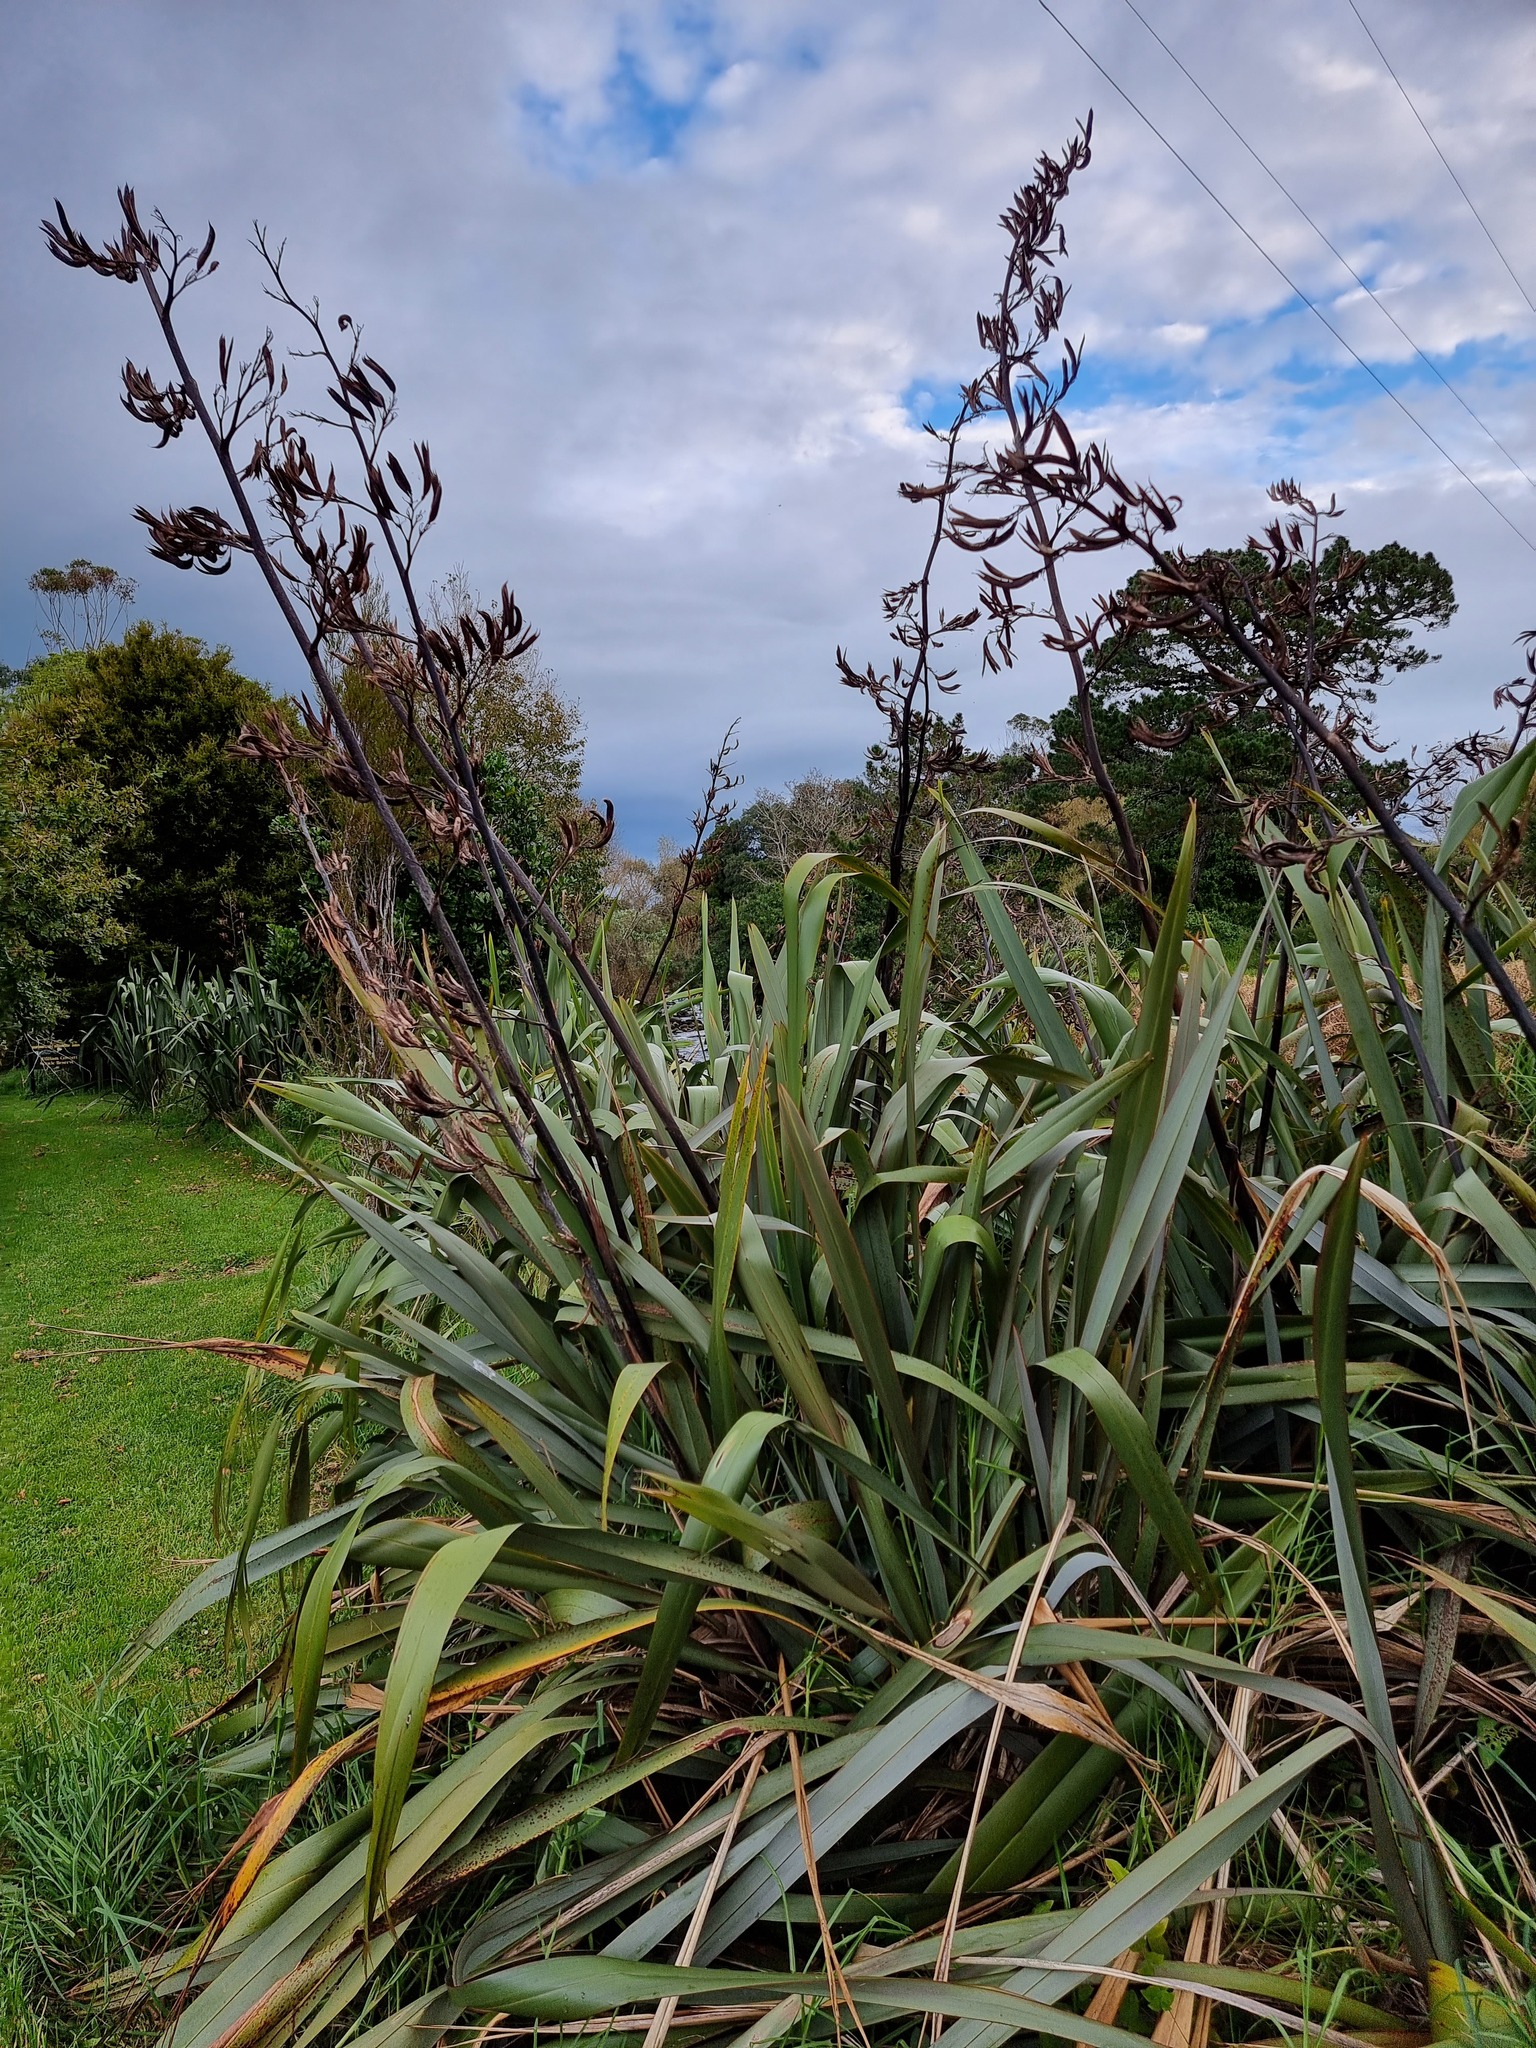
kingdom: Plantae
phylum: Tracheophyta
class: Liliopsida
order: Asparagales
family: Asphodelaceae
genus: Phormium
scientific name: Phormium tenax
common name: New zealand flax
